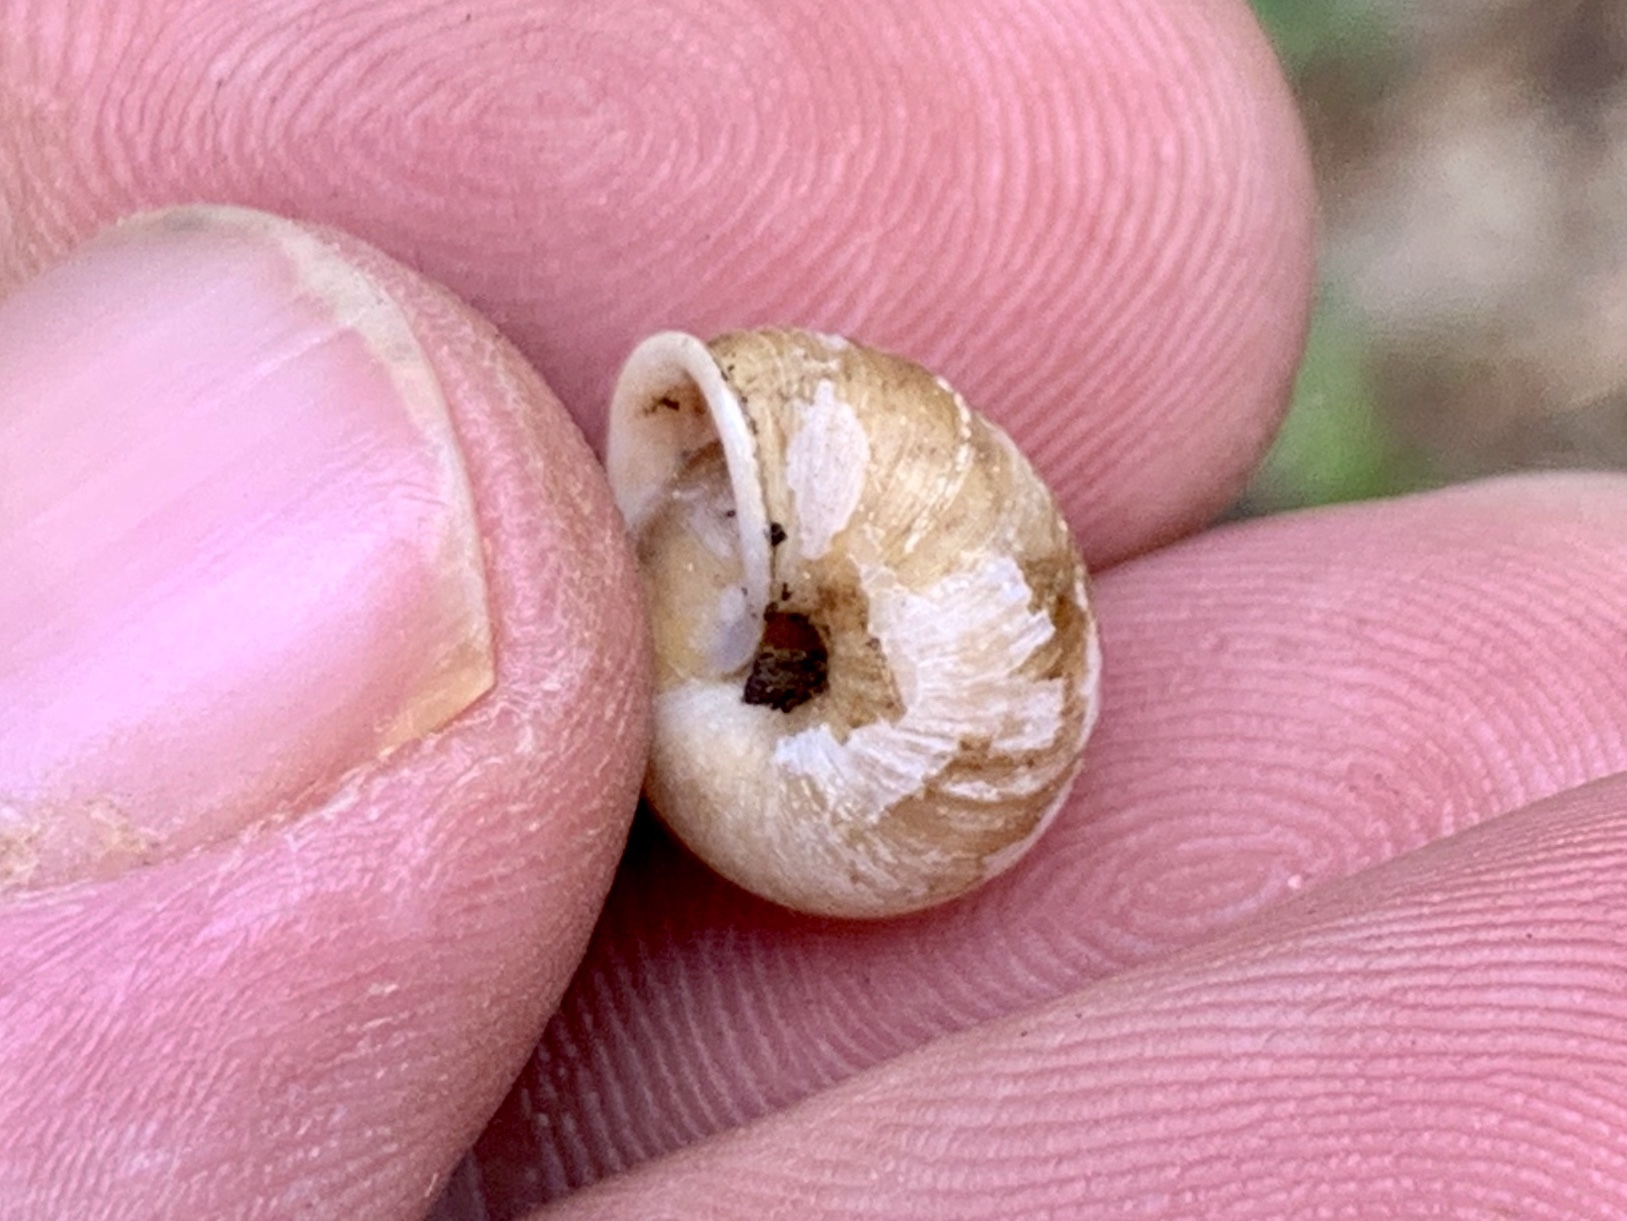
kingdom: Animalia
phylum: Mollusca
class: Gastropoda
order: Stylommatophora
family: Polygyridae
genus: Ashmunella
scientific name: Ashmunella rhyssa
